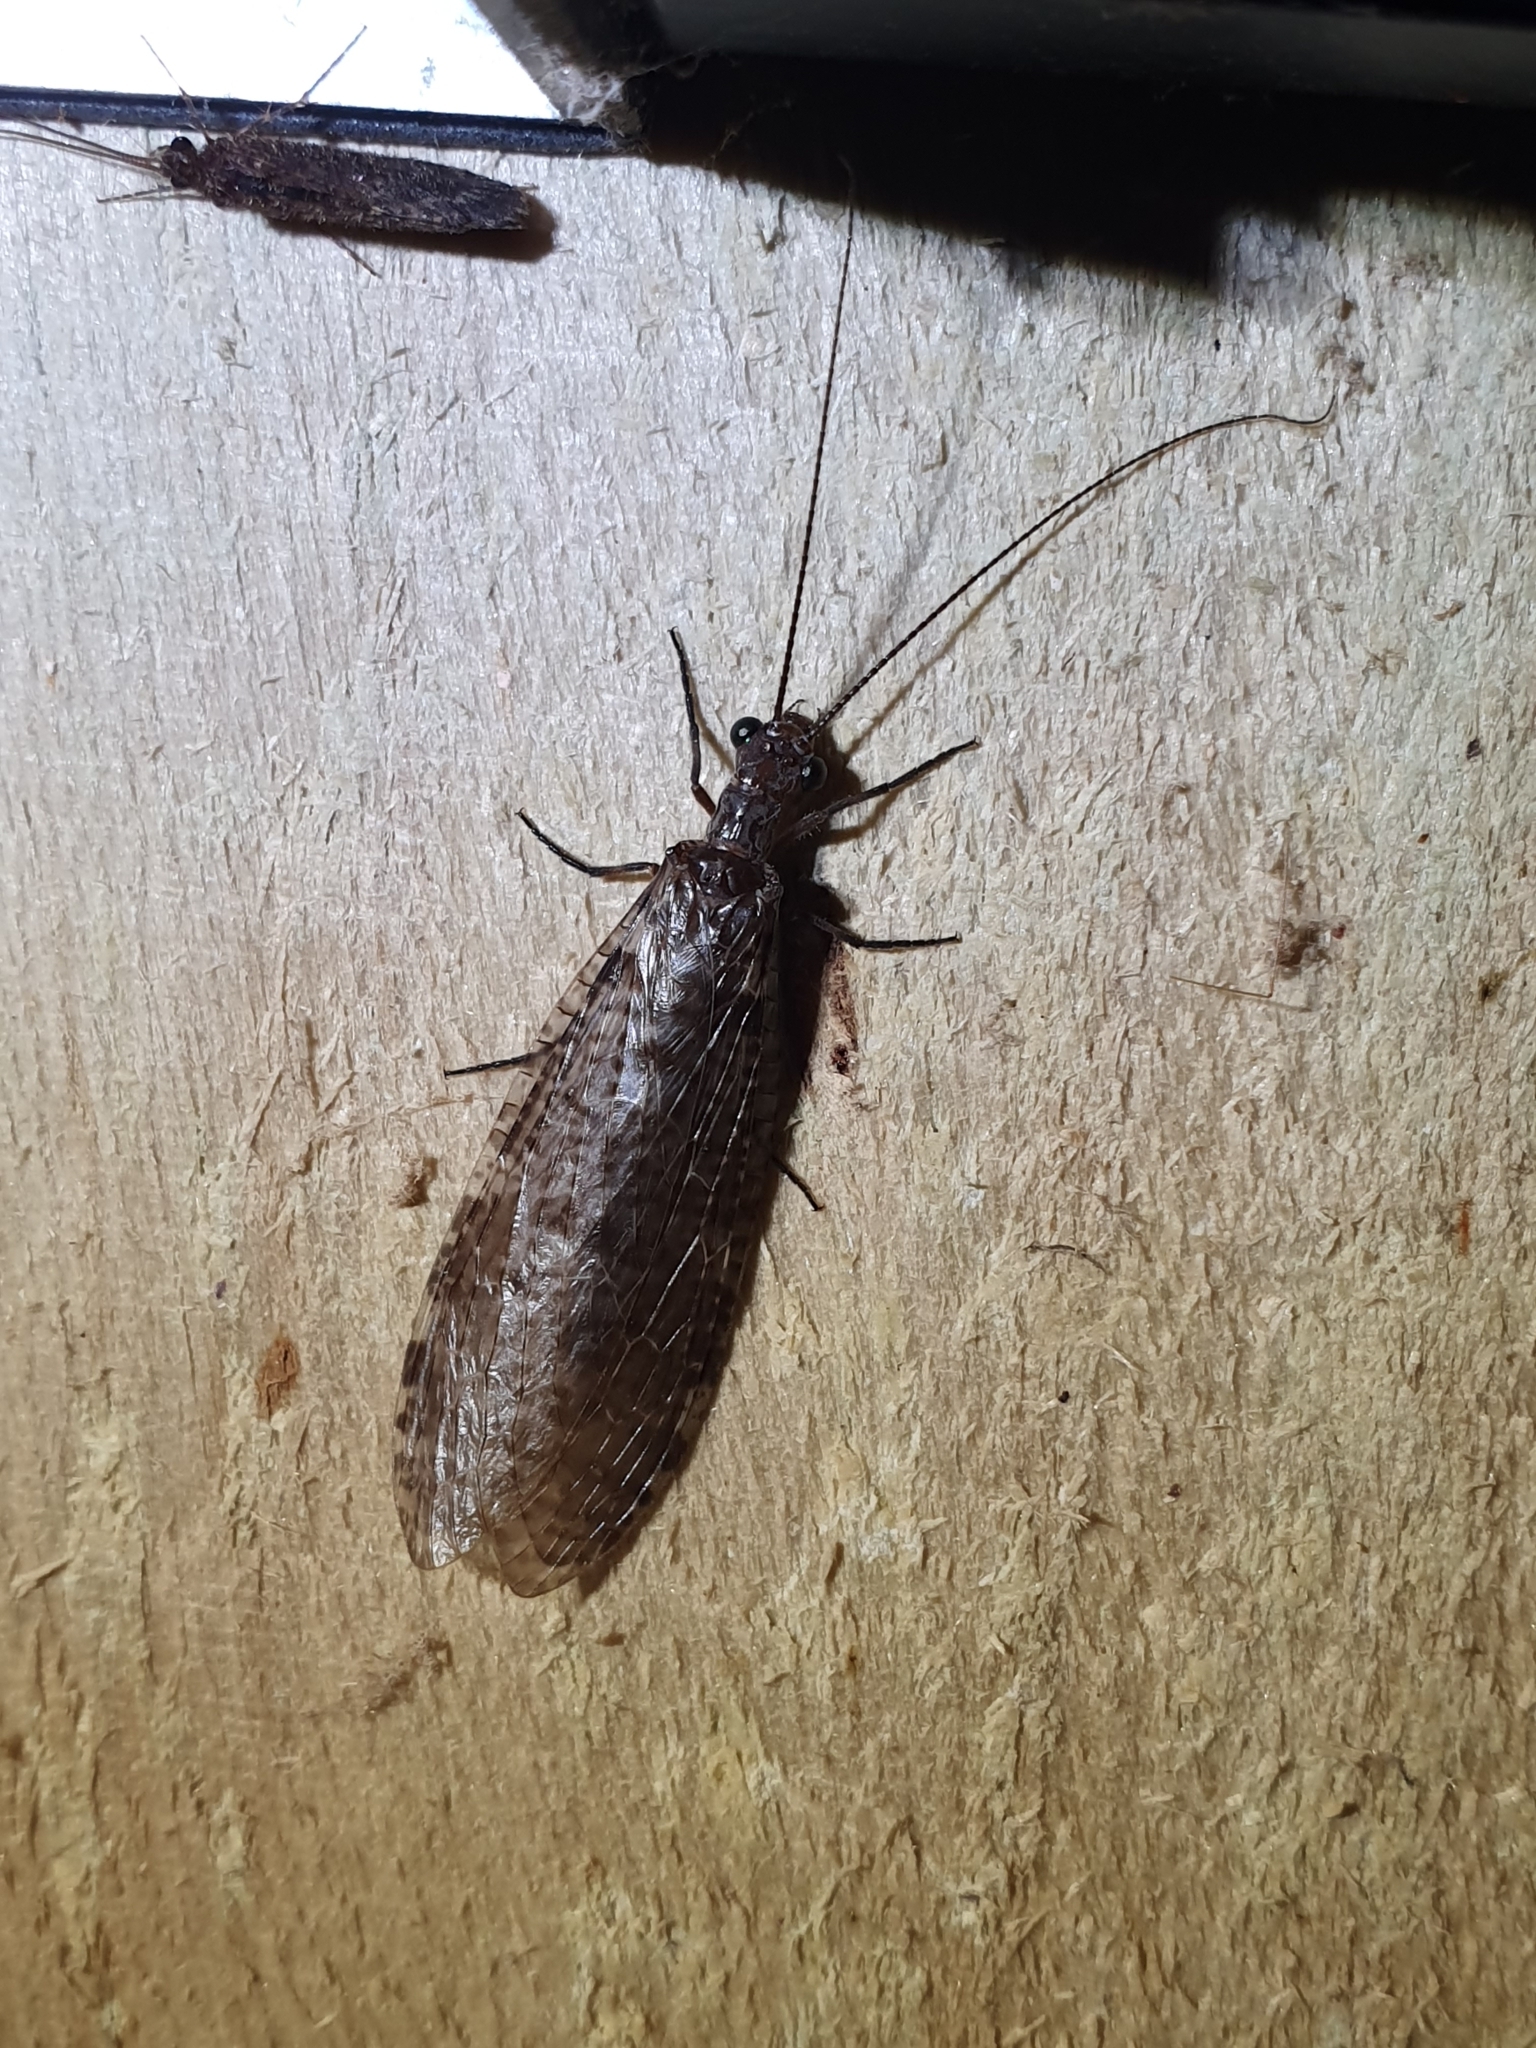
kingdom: Animalia
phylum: Arthropoda
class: Insecta
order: Megaloptera
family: Corydalidae
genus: Archichauliodes
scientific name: Archichauliodes diversus
